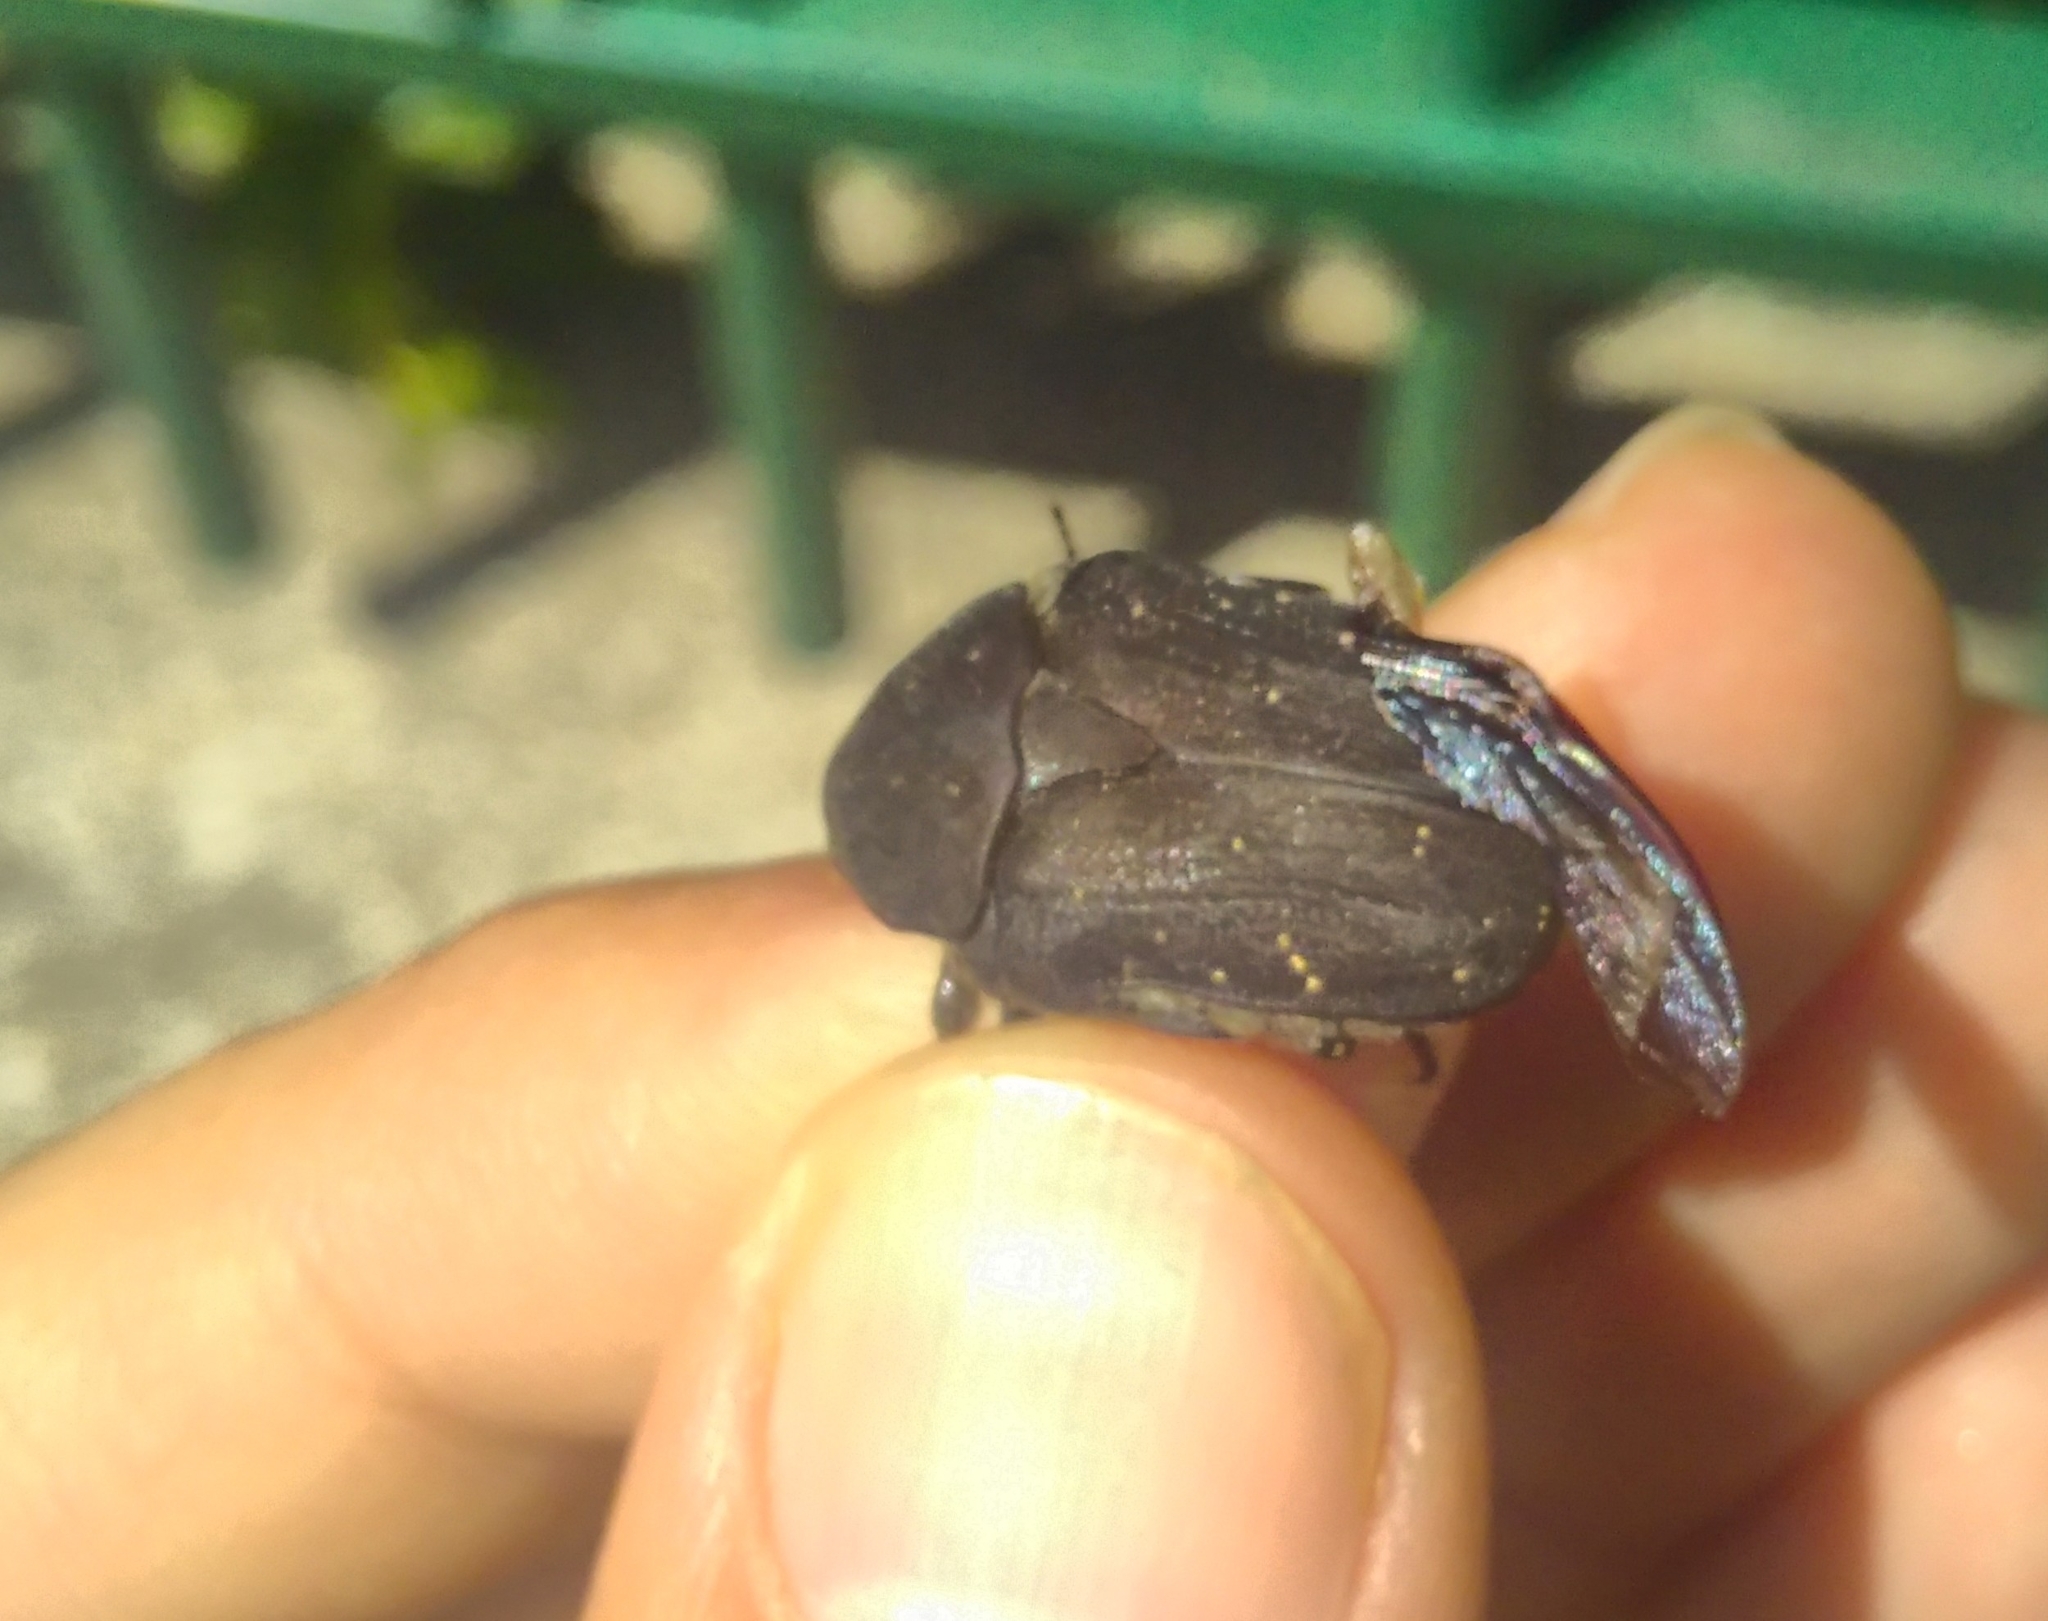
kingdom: Animalia
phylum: Arthropoda
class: Insecta
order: Coleoptera
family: Scarabaeidae
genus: Protaetia
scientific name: Protaetia morio
